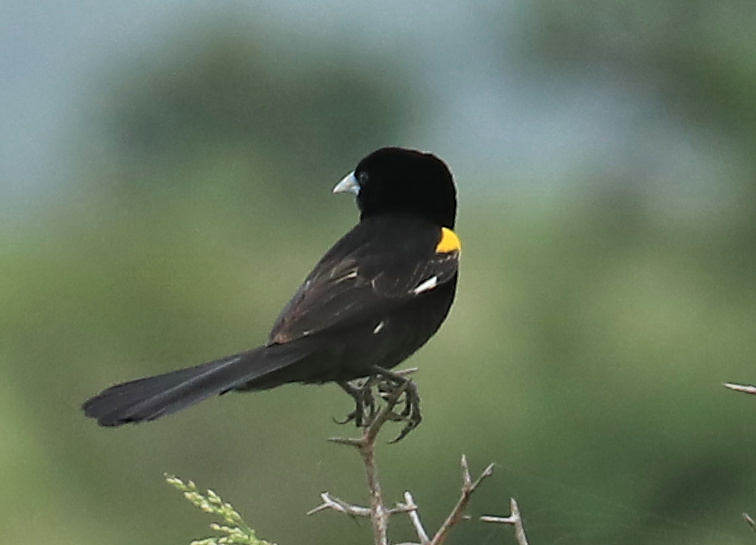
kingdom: Animalia
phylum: Chordata
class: Aves
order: Passeriformes
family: Ploceidae
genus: Euplectes
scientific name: Euplectes albonotatus
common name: White-winged widowbird
